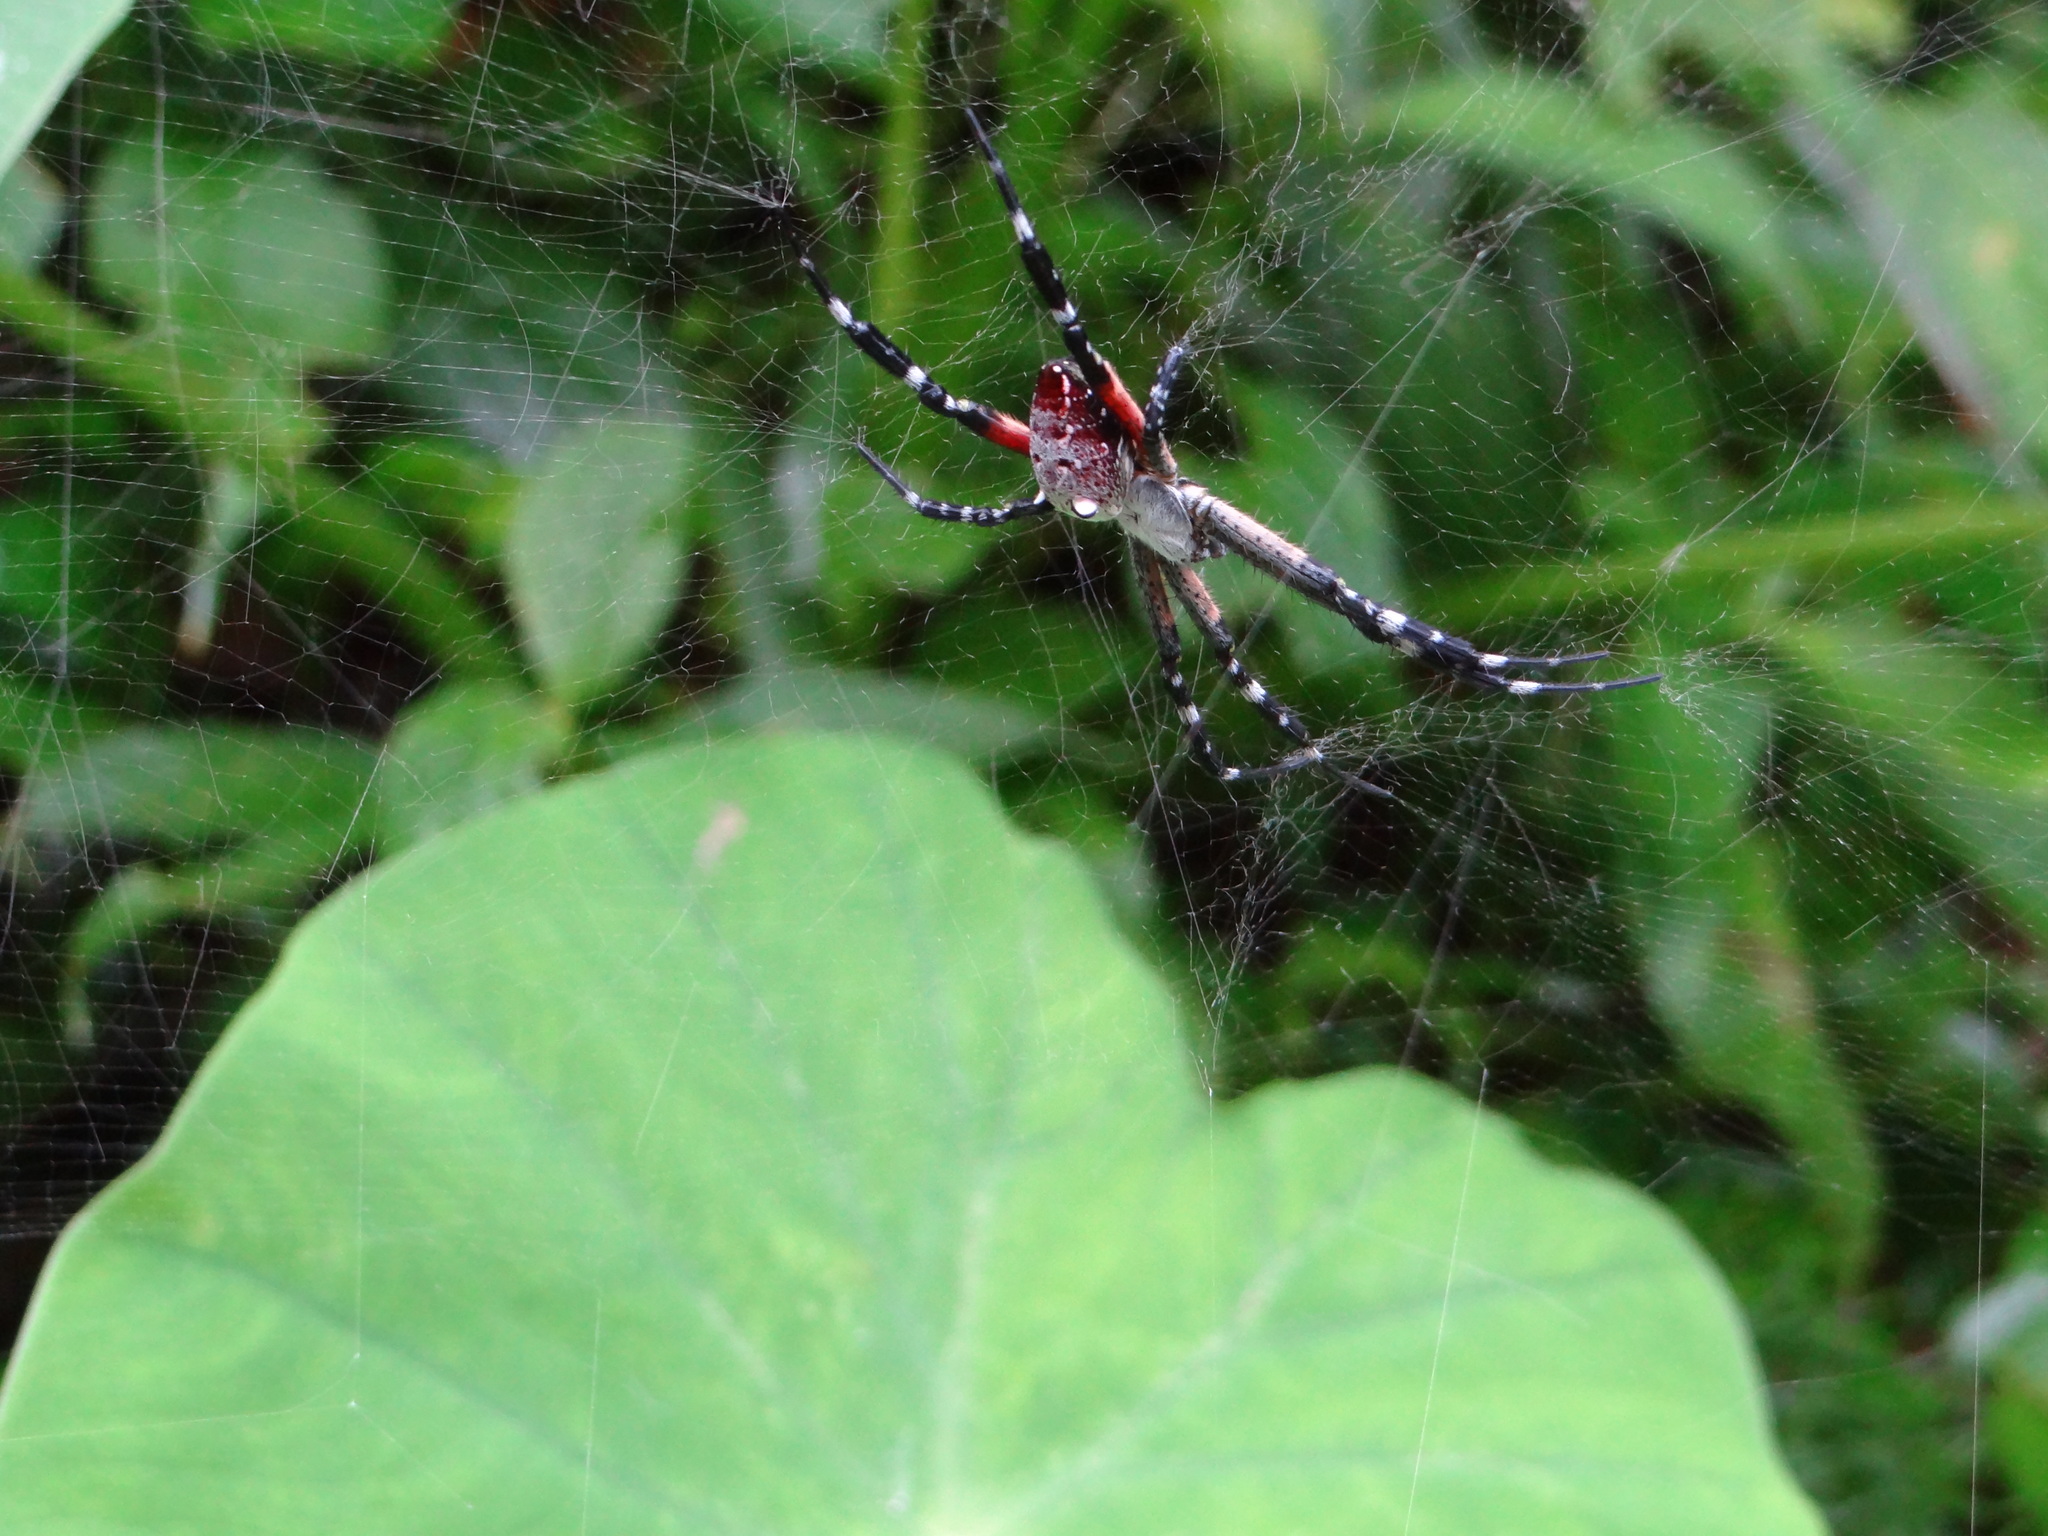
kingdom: Chromista
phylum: Ochrophyta
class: Dictyochophyceae
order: Pedinellales
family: Cyrtophoraceae
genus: Cyrtophora
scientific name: Cyrtophora moluccensis
